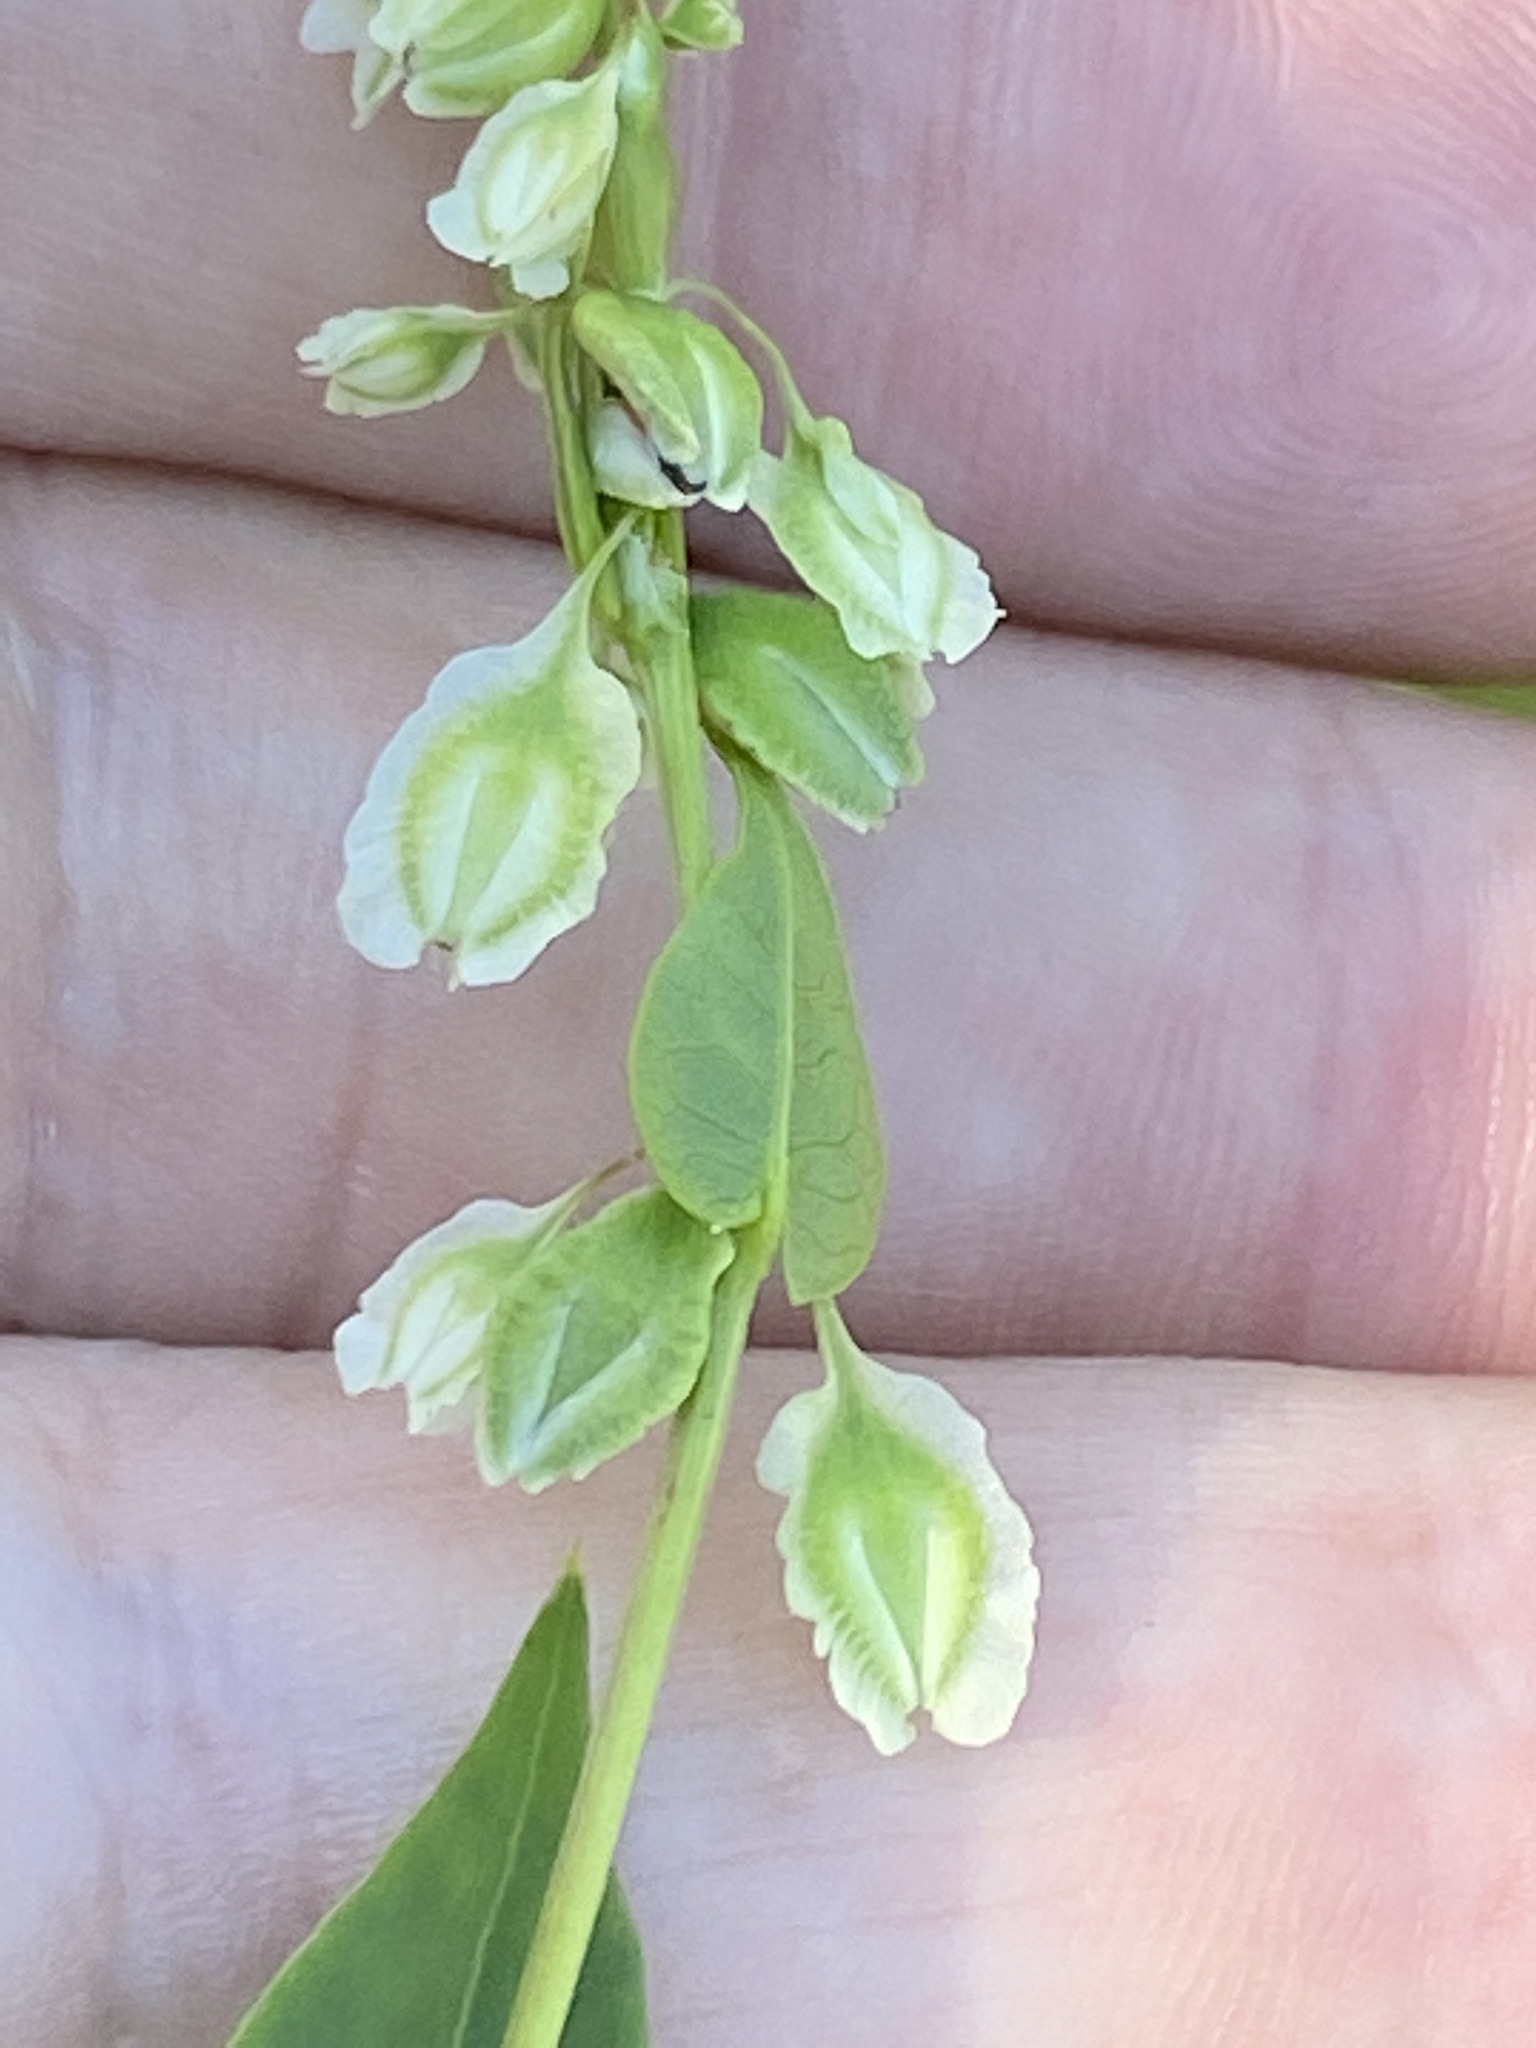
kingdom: Plantae
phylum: Tracheophyta
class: Magnoliopsida
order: Caryophyllales
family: Polygonaceae
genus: Fallopia
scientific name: Fallopia scandens
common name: Climbing false buckwheat
